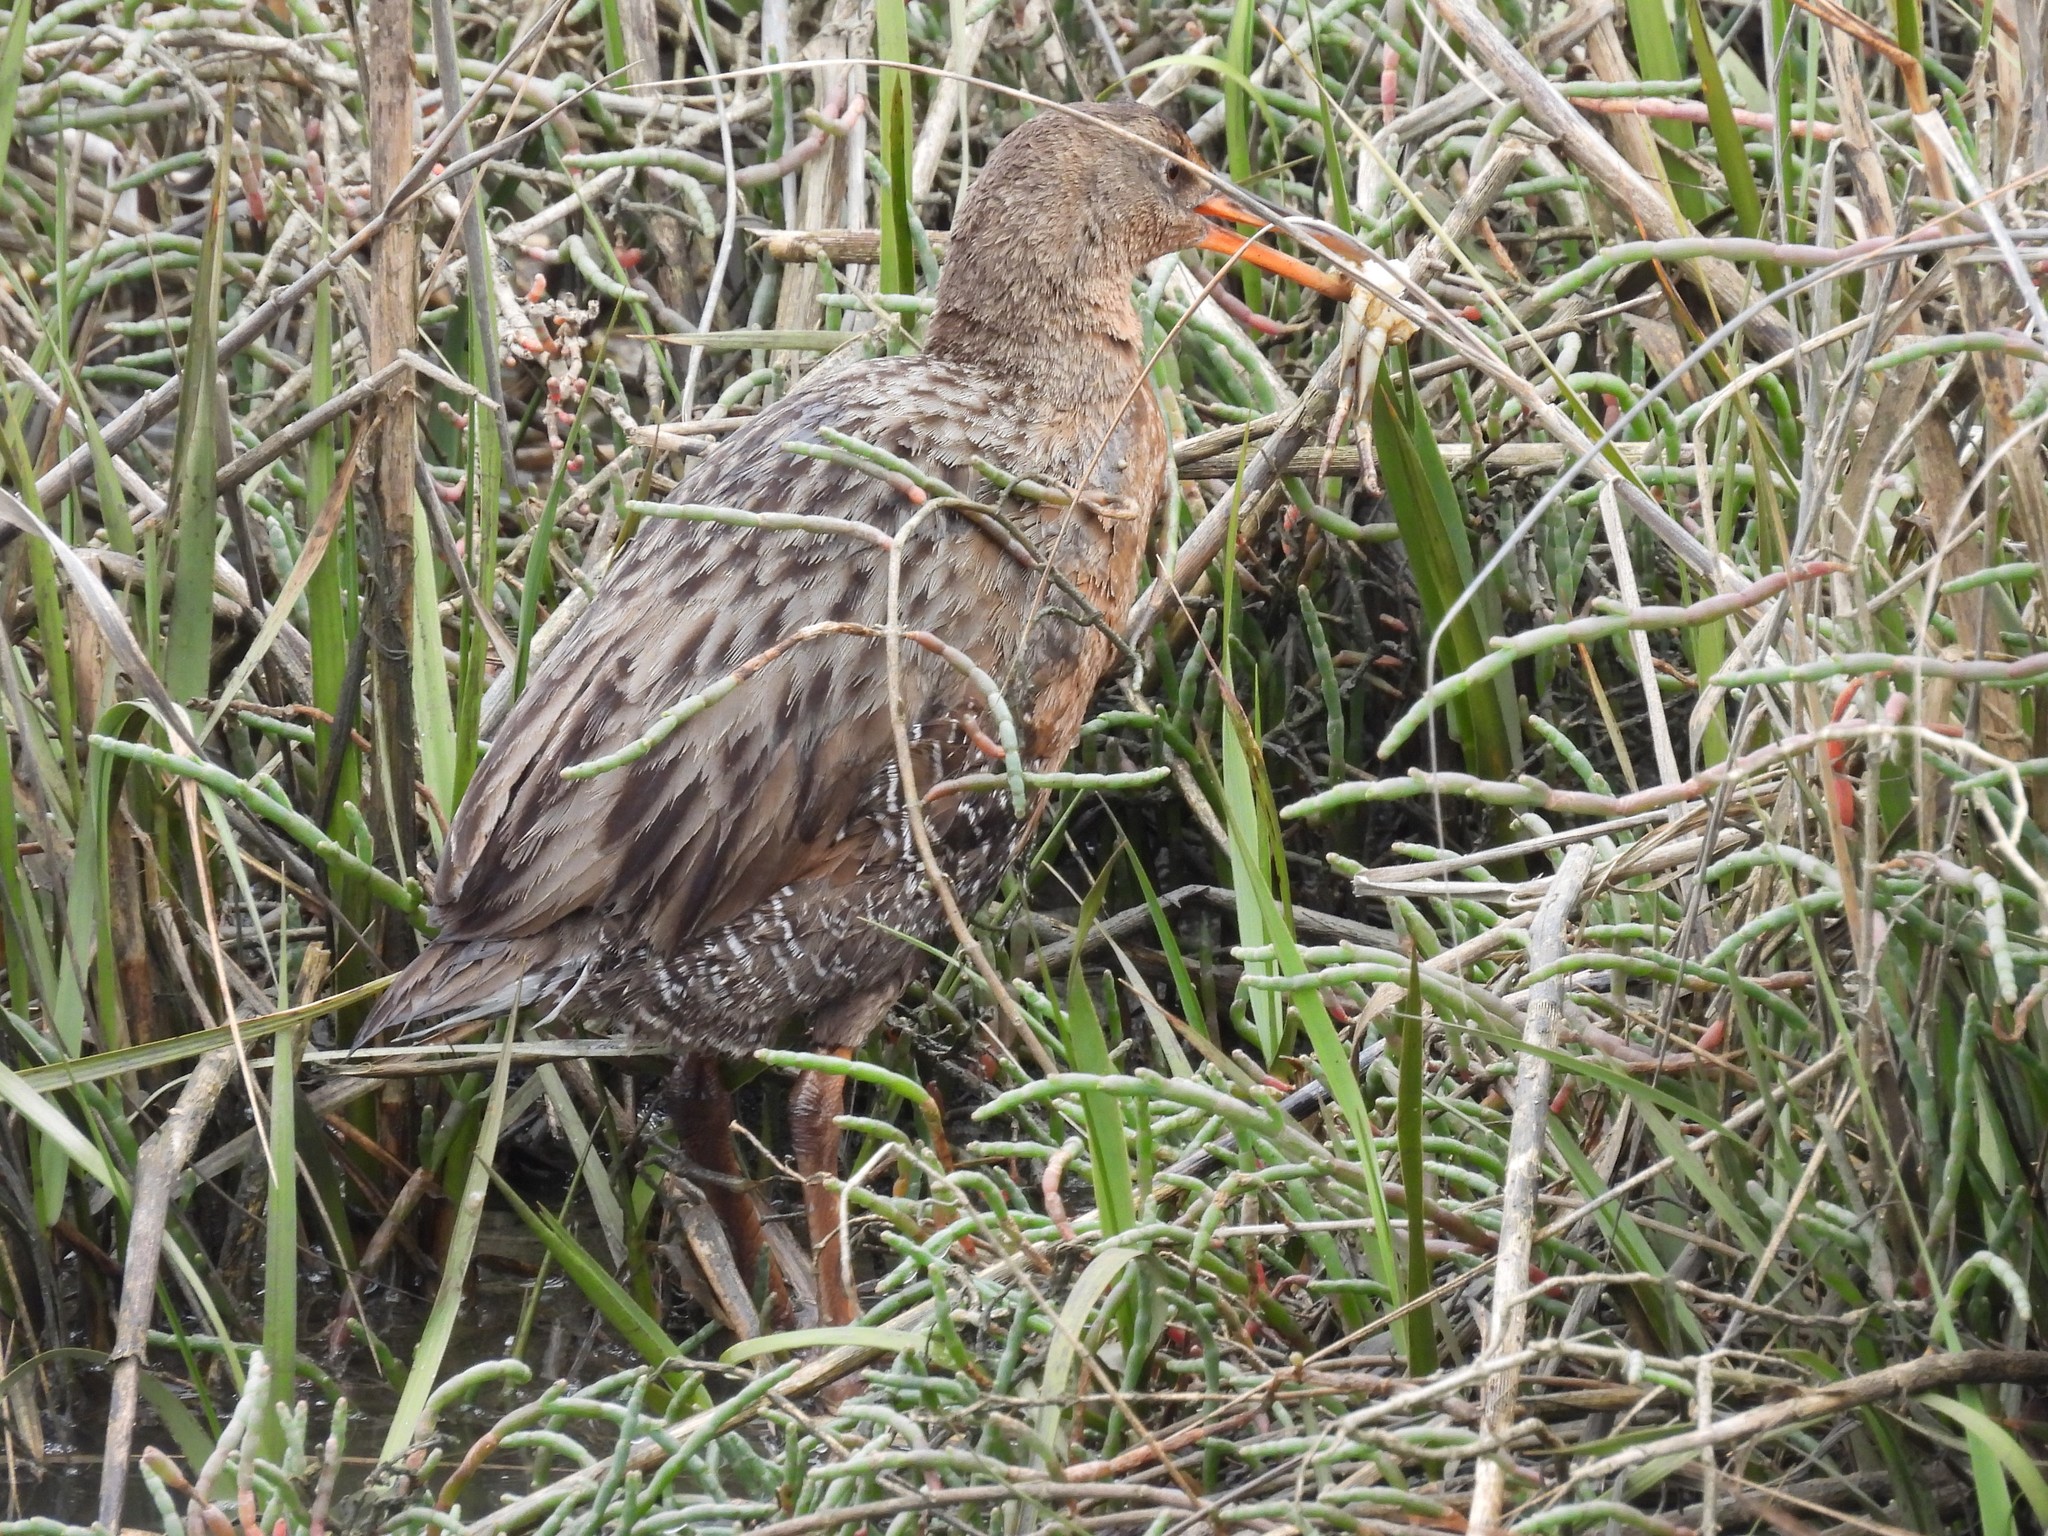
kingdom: Animalia
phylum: Chordata
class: Aves
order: Gruiformes
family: Rallidae
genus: Rallus
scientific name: Rallus obsoletus
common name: Ridgway's rail
